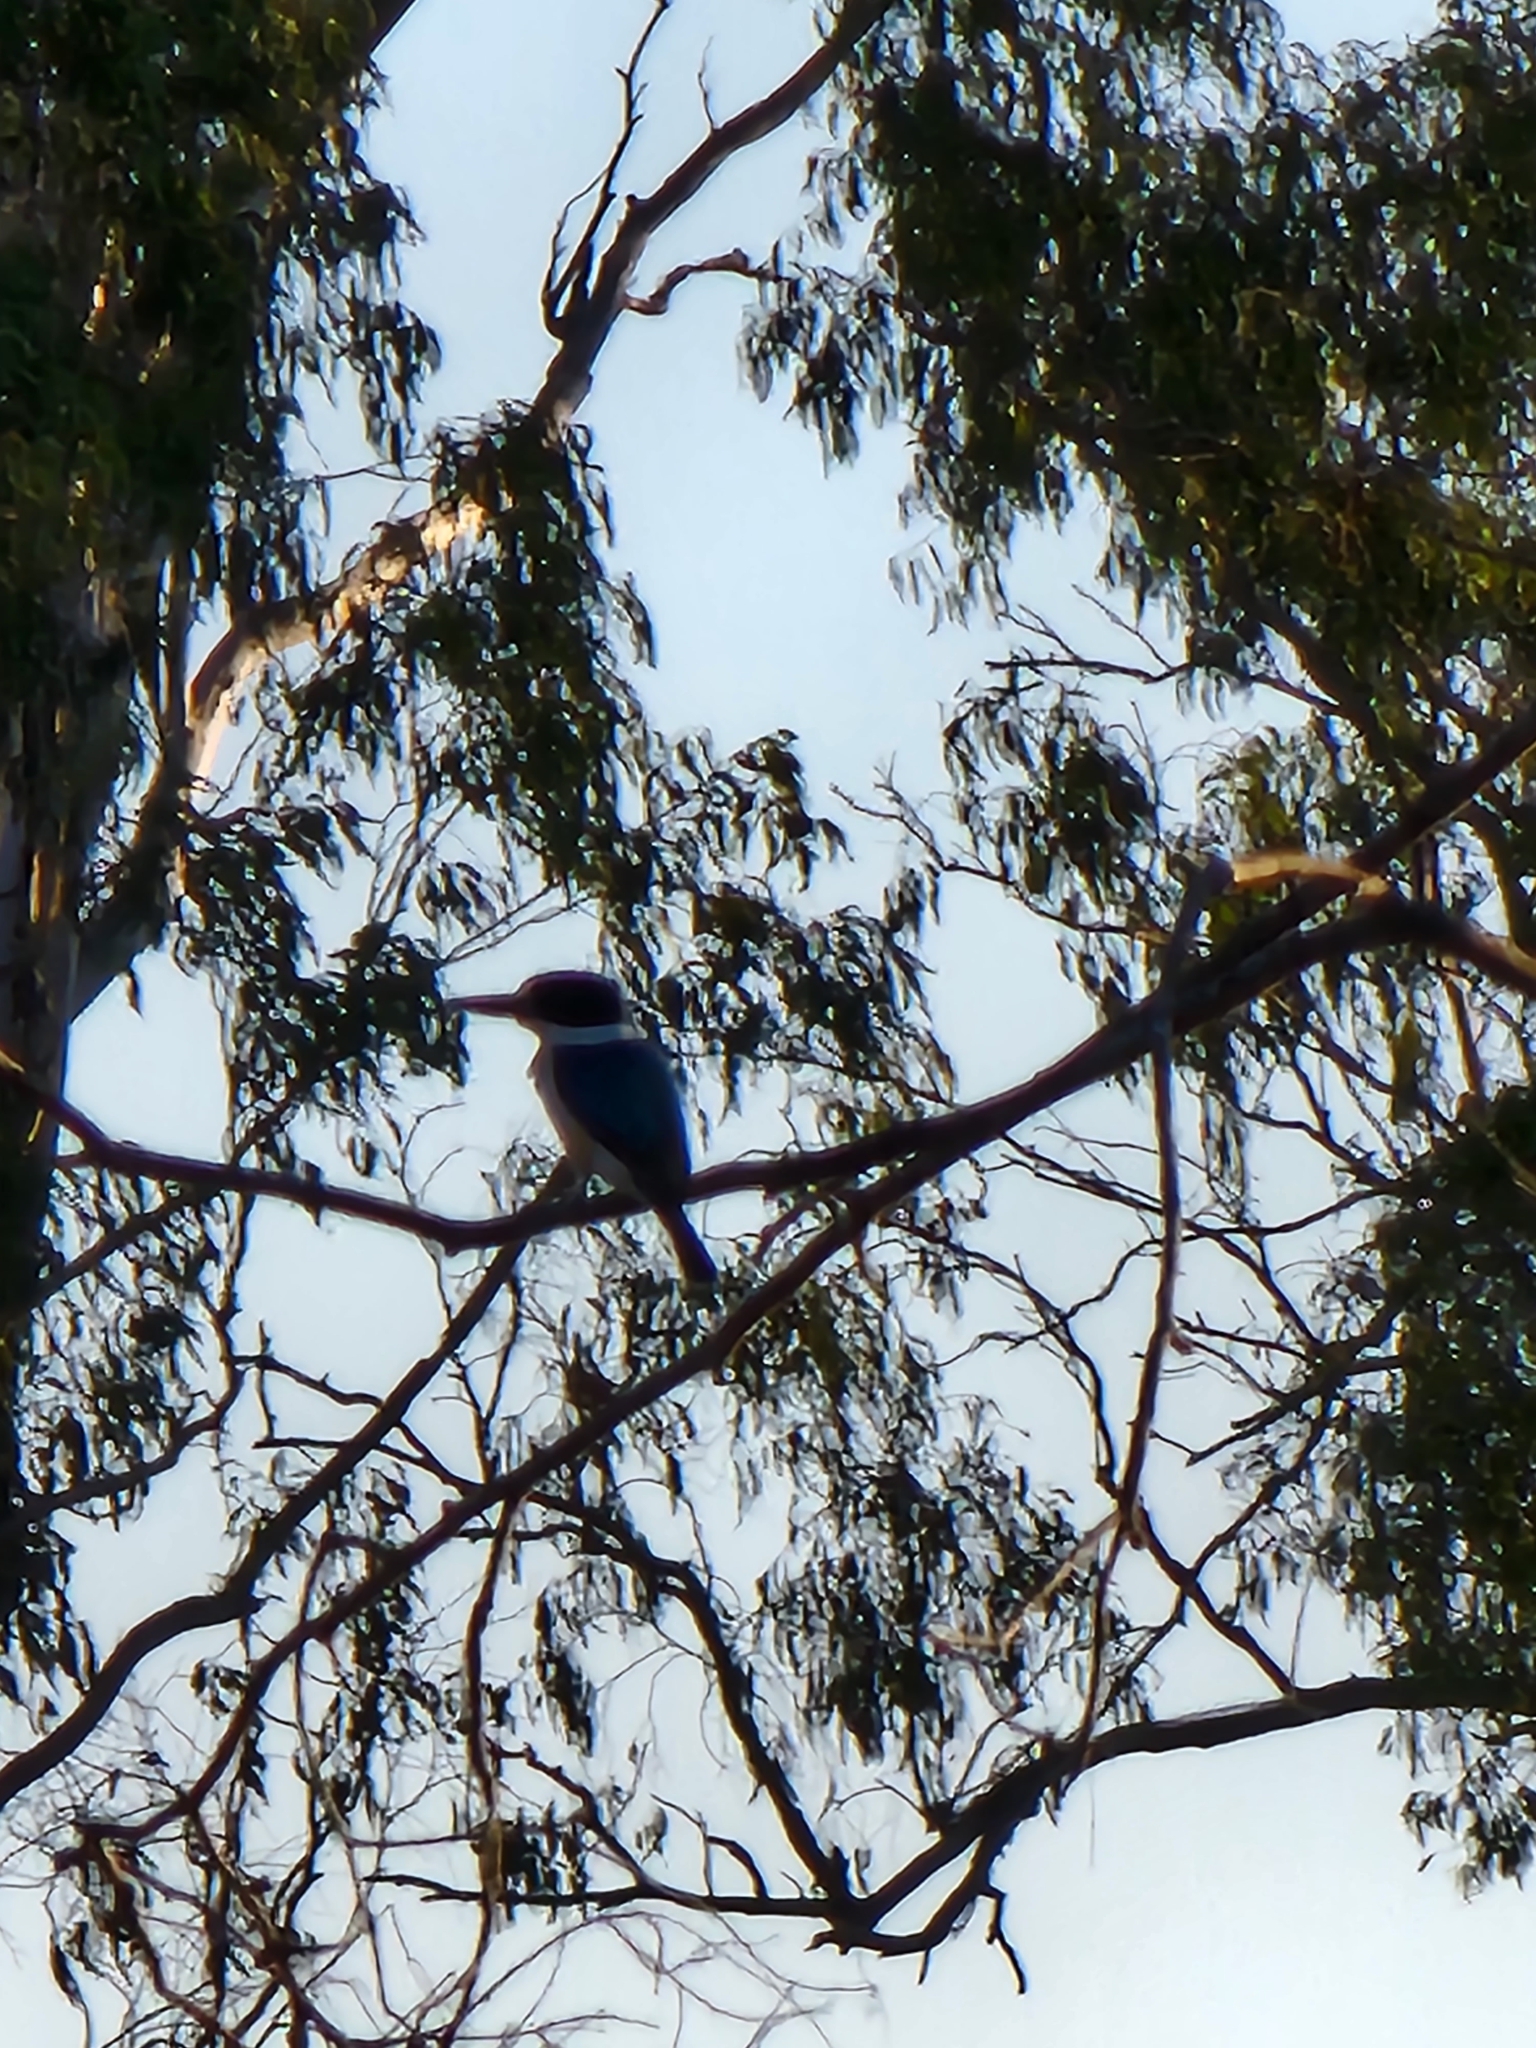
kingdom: Animalia
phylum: Chordata
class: Aves
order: Coraciiformes
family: Alcedinidae
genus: Todiramphus
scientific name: Todiramphus macleayii
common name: Forest kingfisher
